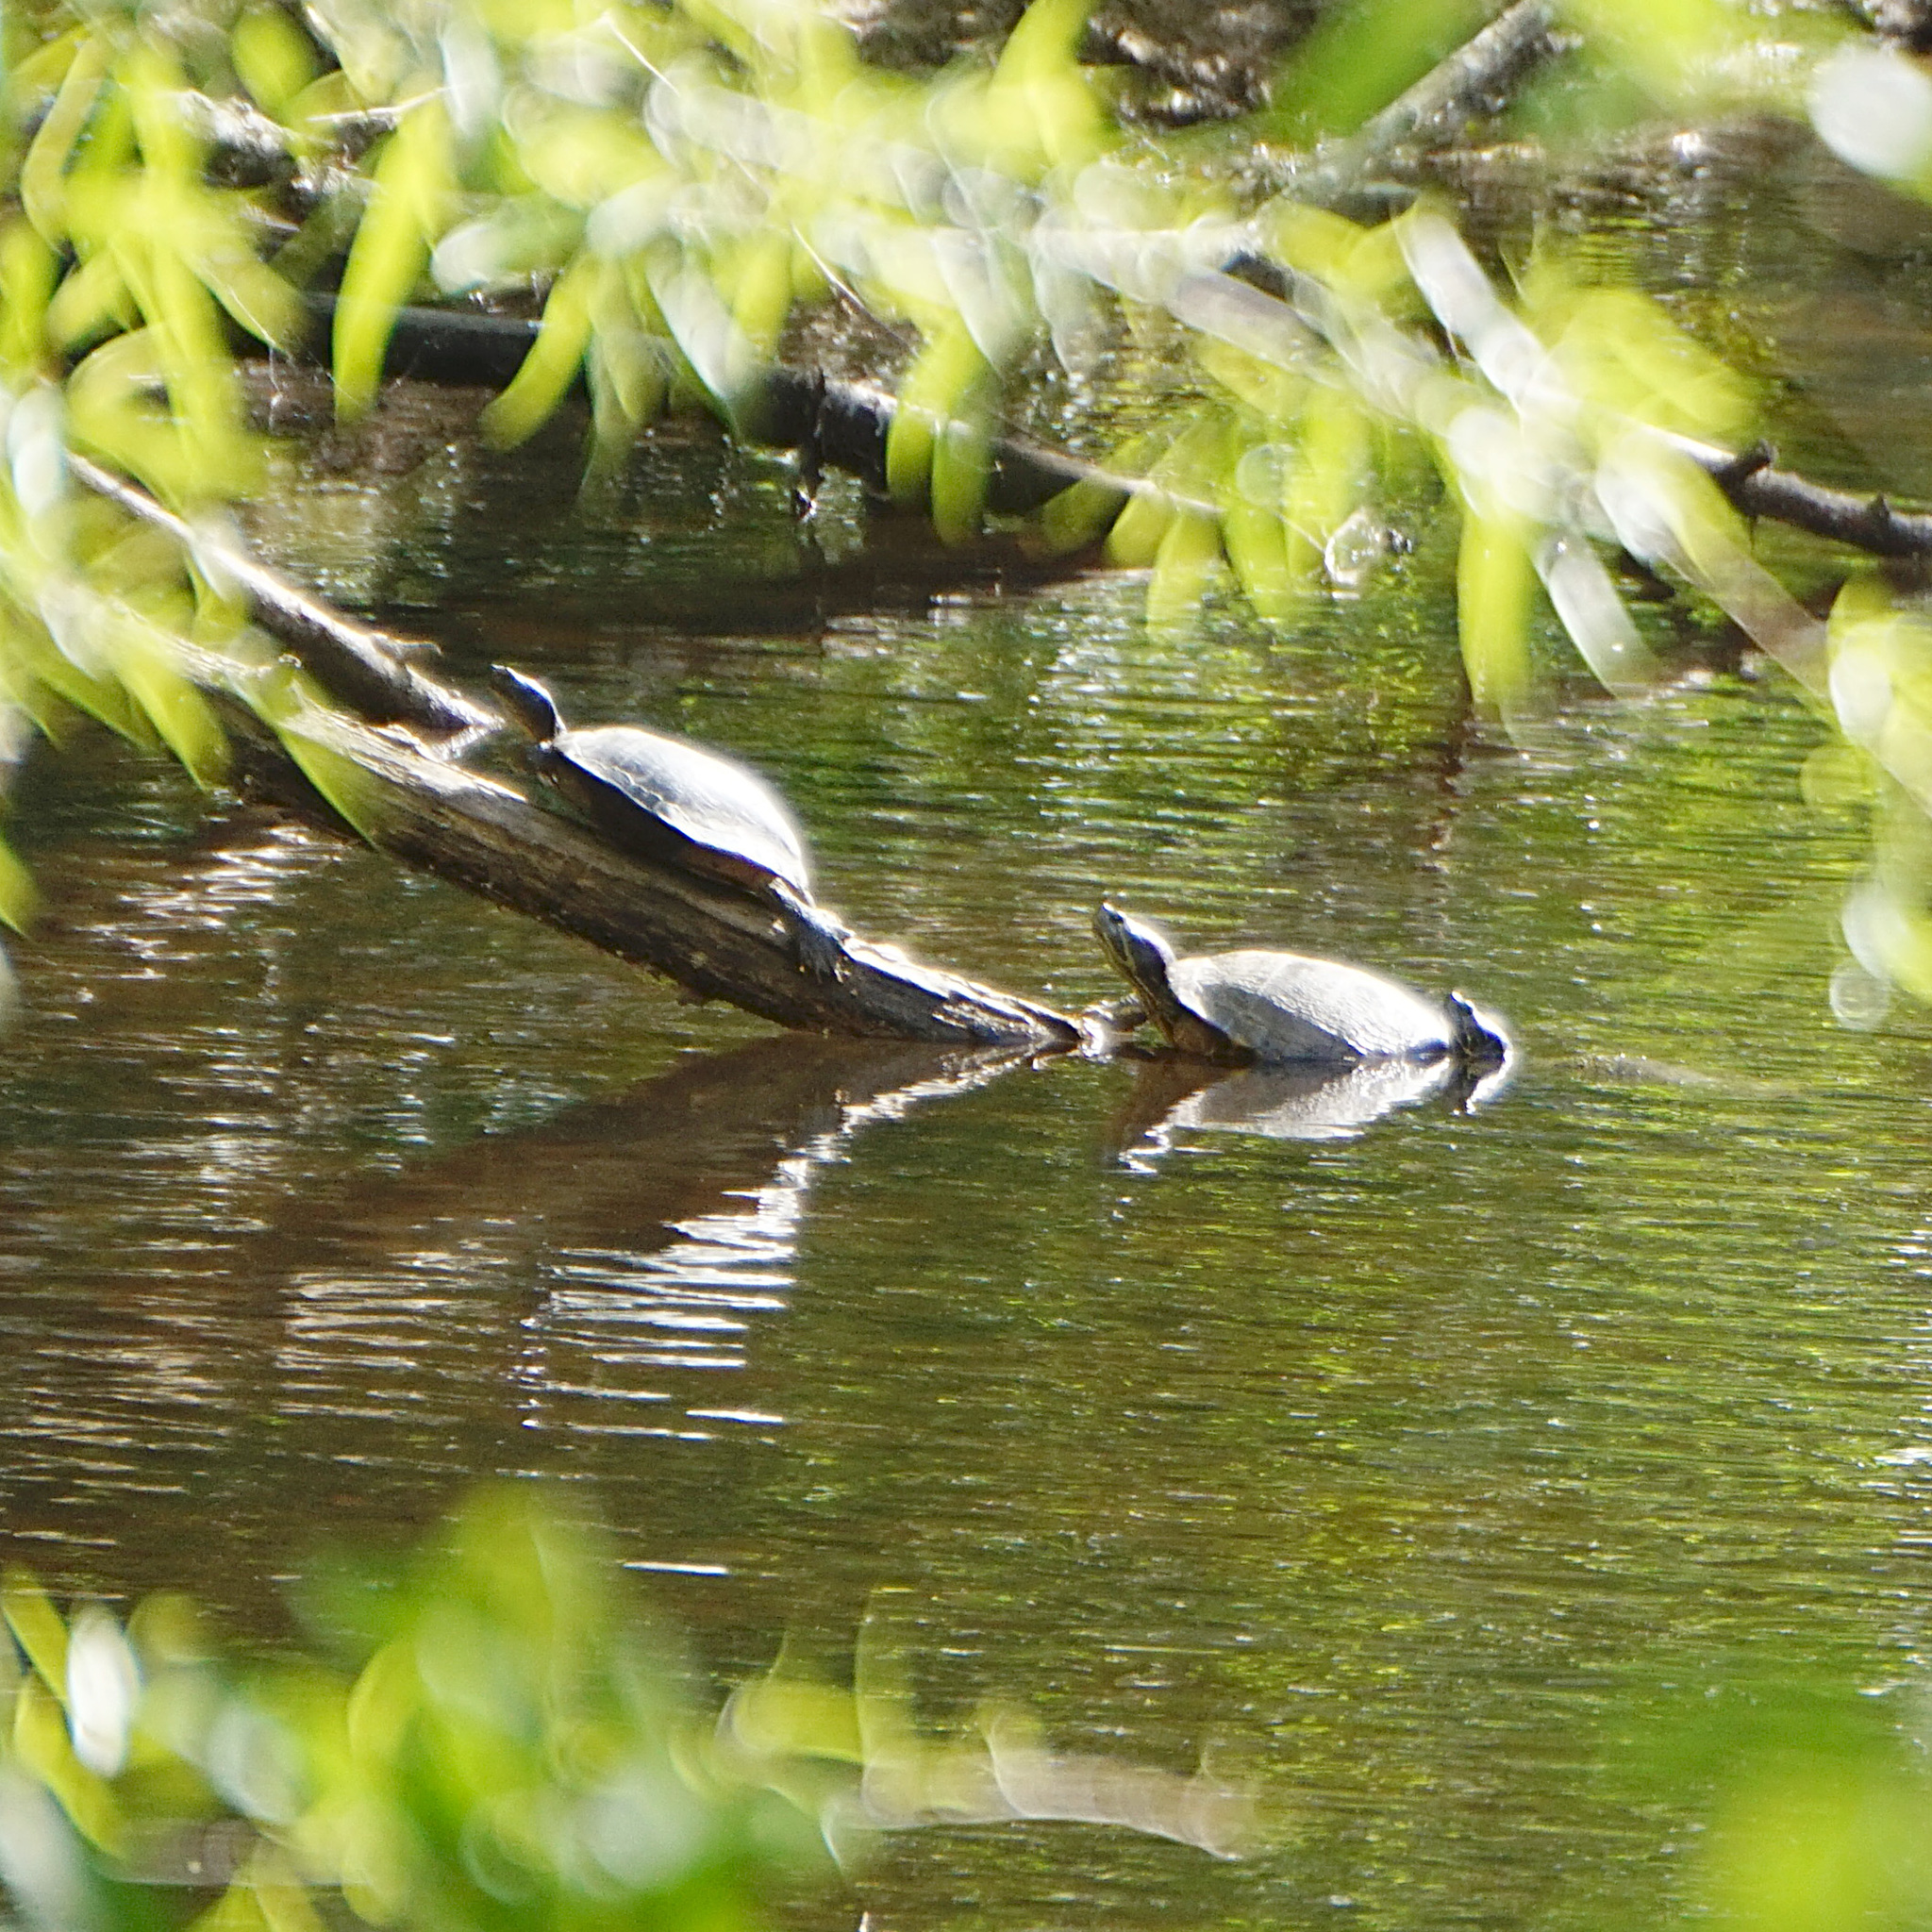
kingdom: Animalia
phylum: Chordata
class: Testudines
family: Emydidae
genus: Trachemys
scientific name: Trachemys scripta
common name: Slider
